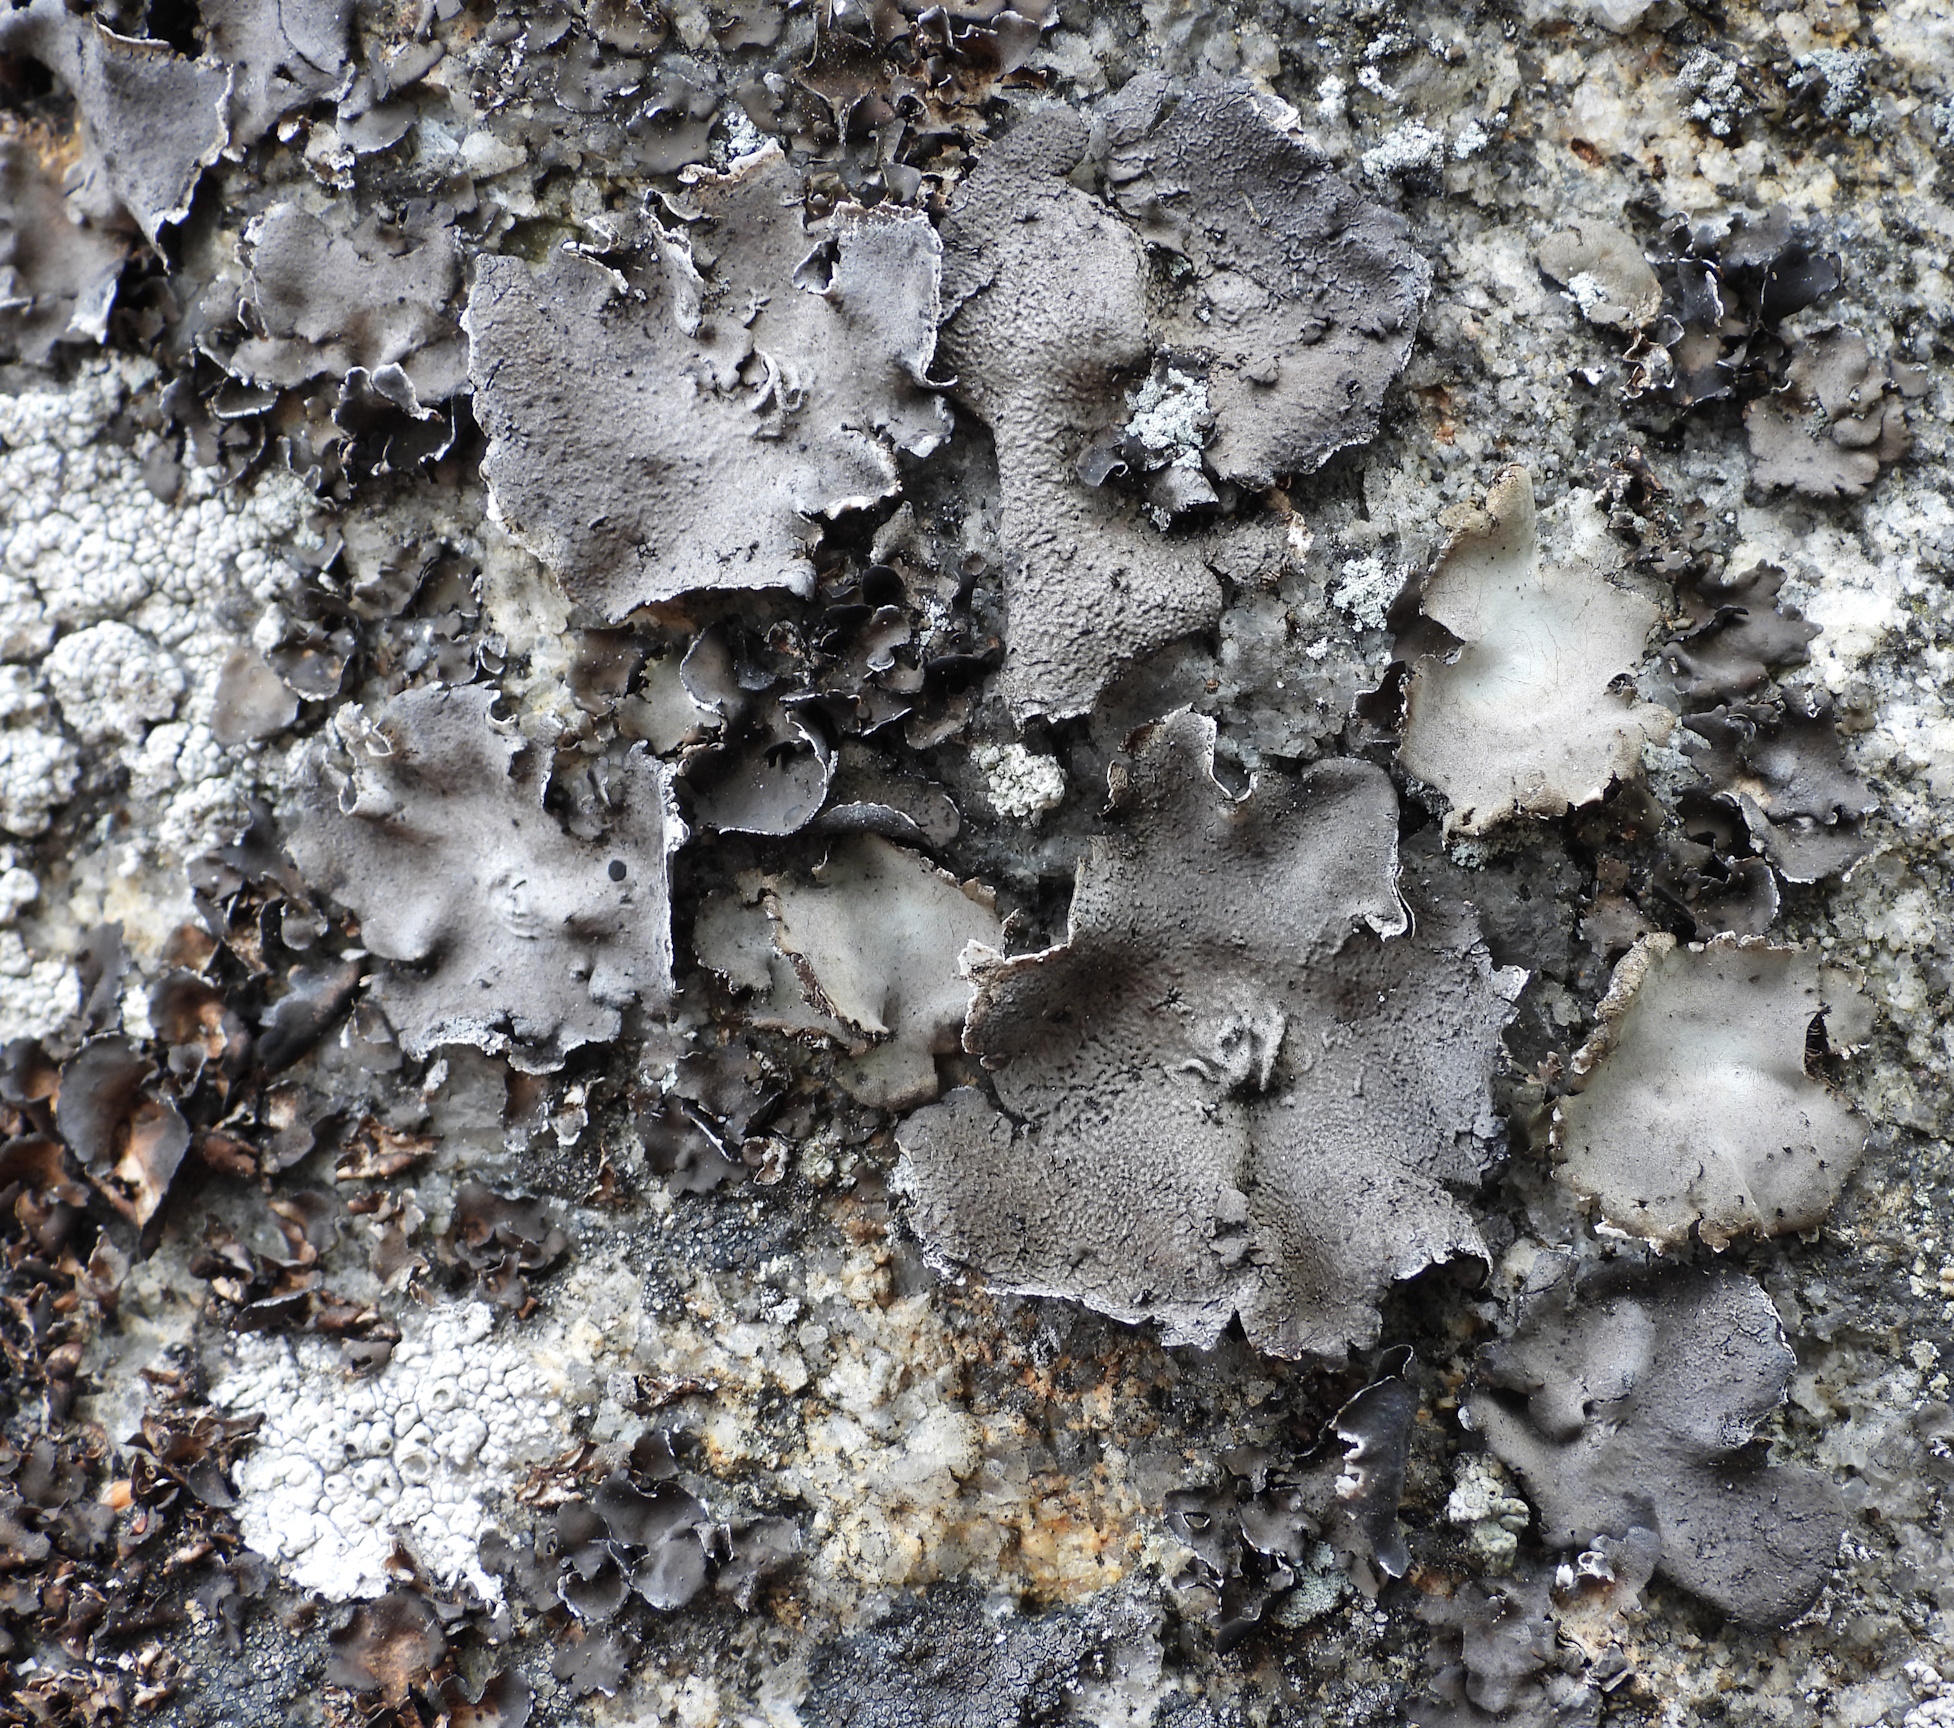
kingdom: Fungi
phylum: Ascomycota
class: Lecanoromycetes
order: Umbilicariales
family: Umbilicariaceae
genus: Umbilicaria
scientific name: Umbilicaria nylanderiana
